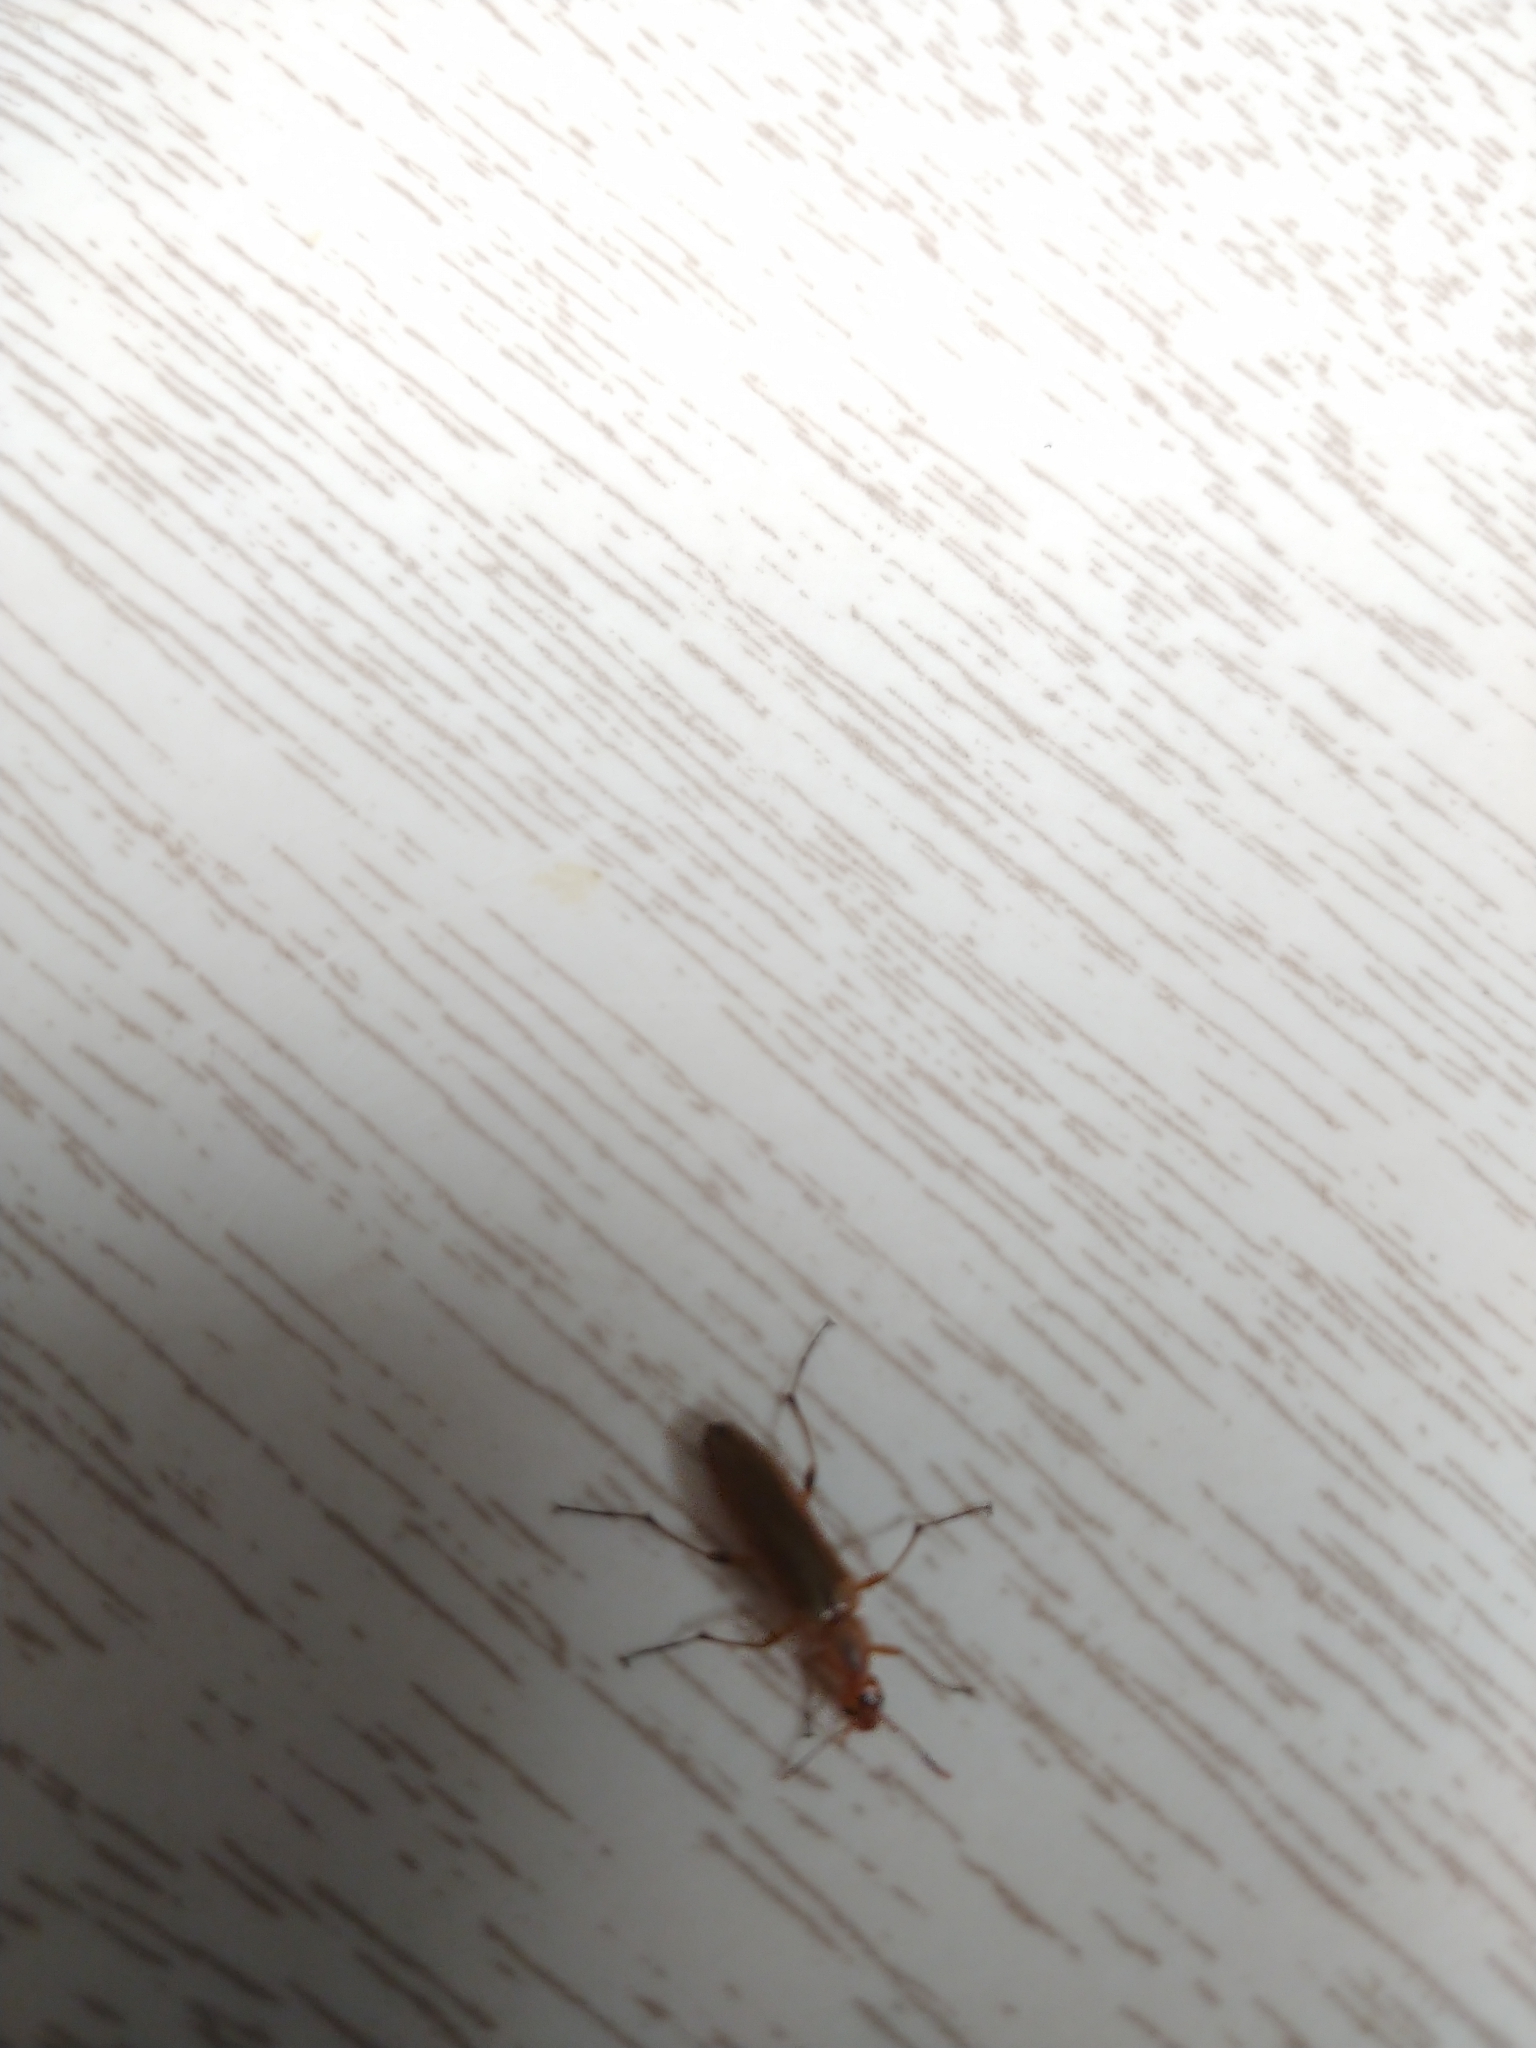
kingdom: Animalia
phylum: Arthropoda
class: Insecta
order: Coleoptera
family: Stenotrachelidae
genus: Cephaloon
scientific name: Cephaloon lepturides
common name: False leptura beetle
